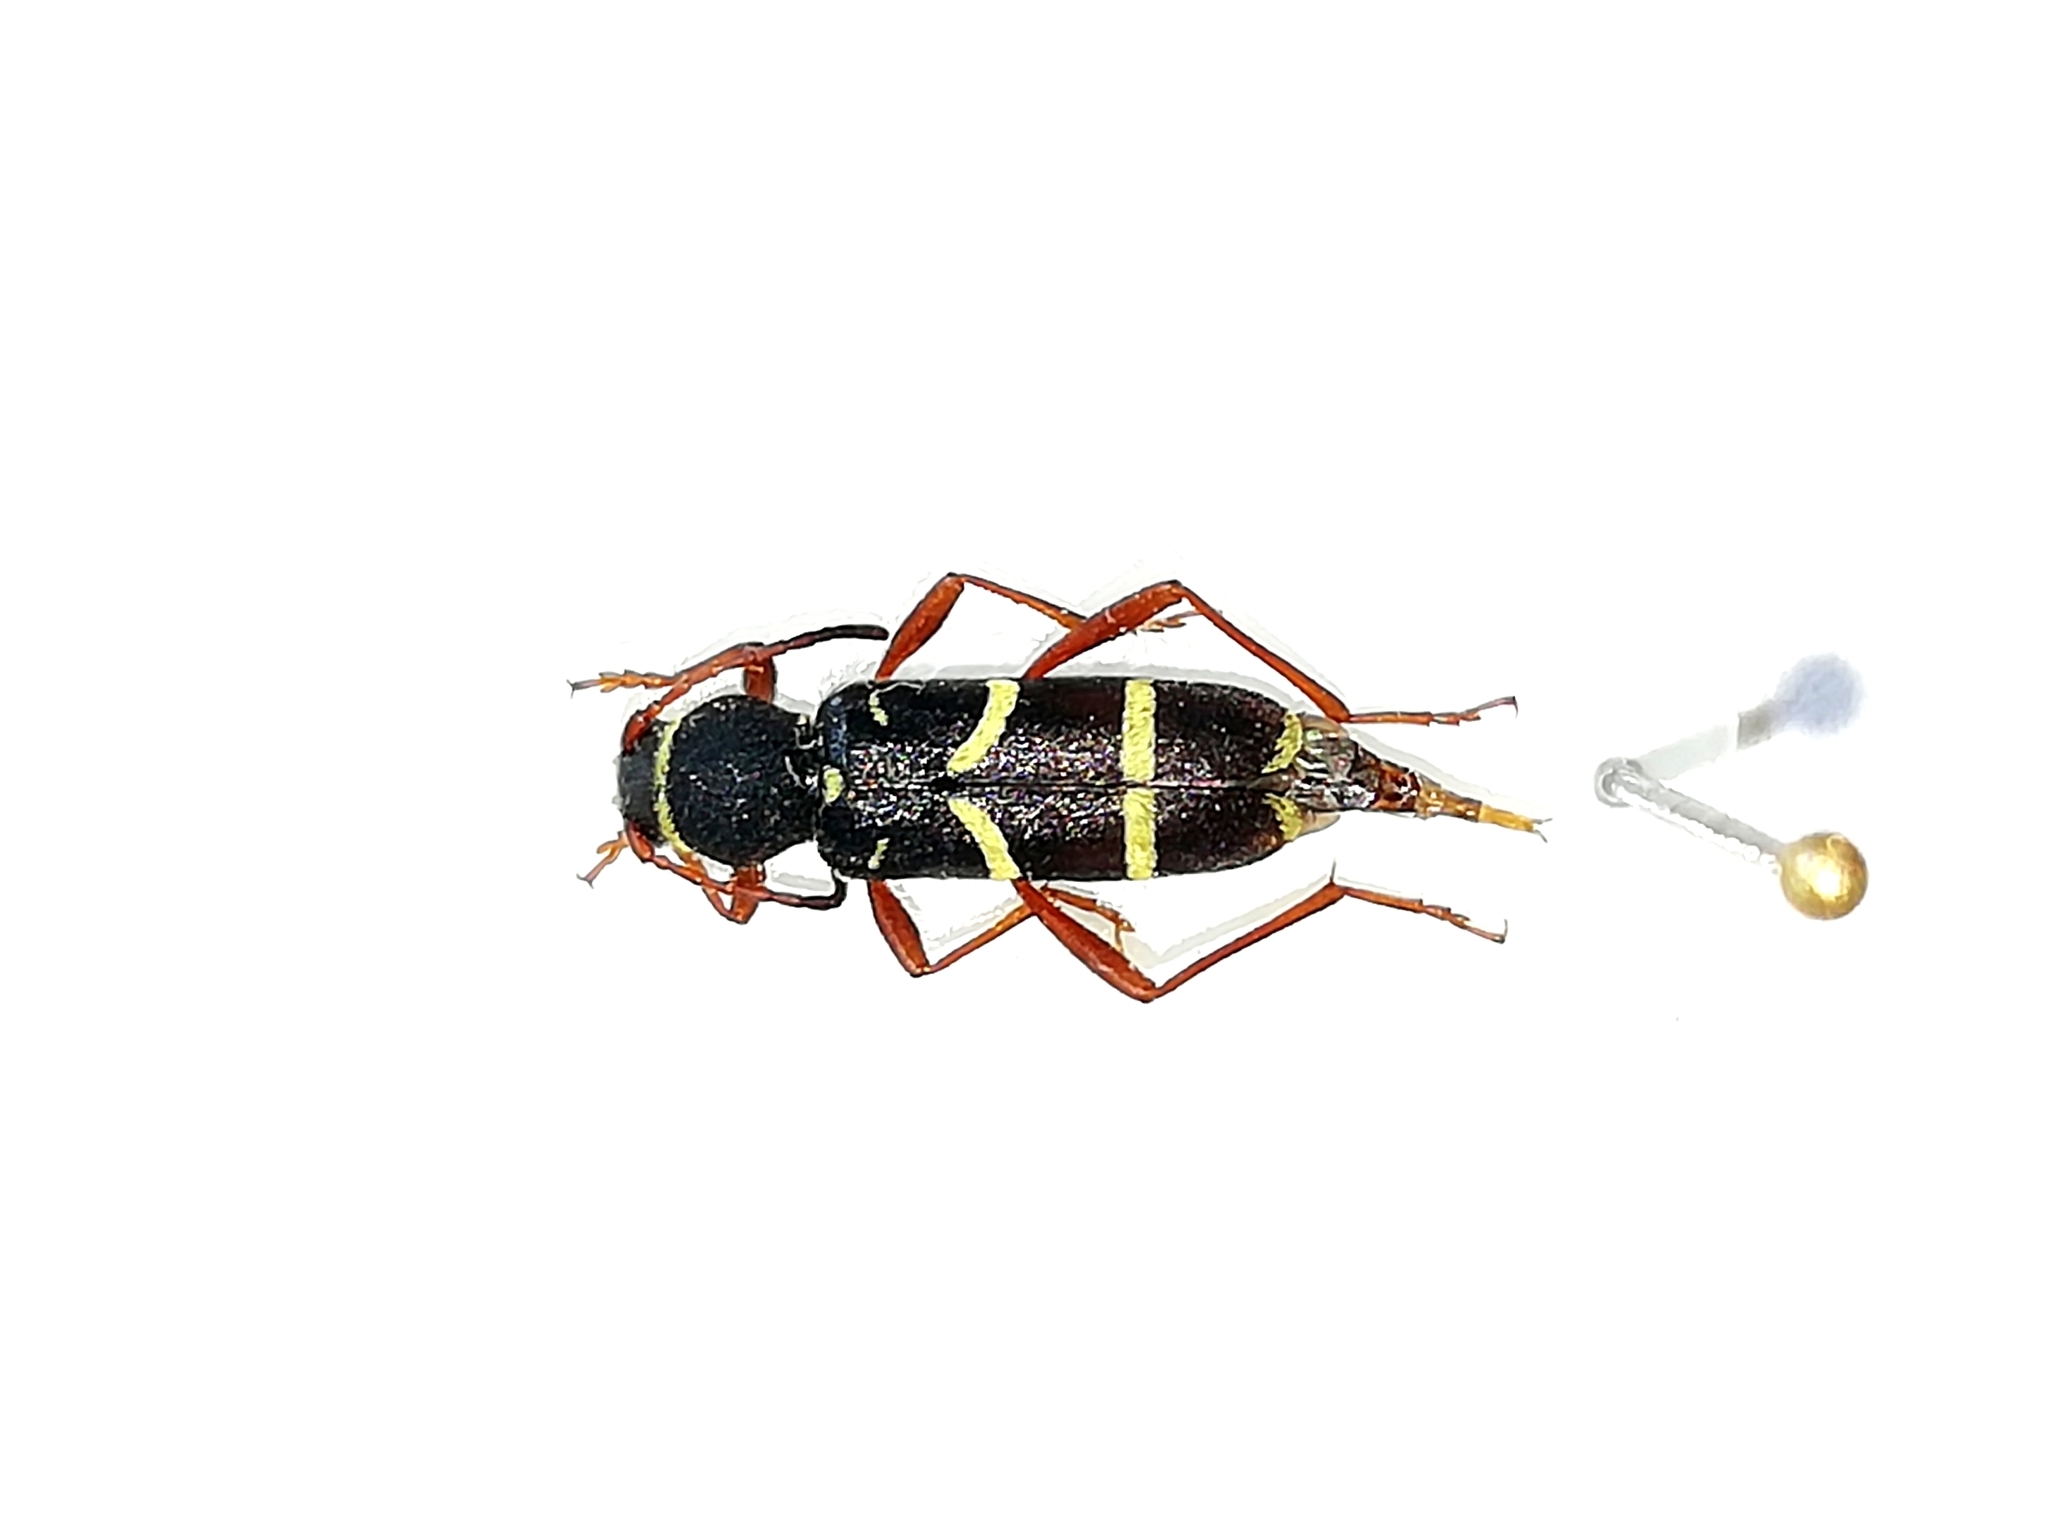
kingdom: Animalia
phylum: Arthropoda
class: Insecta
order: Coleoptera
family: Cerambycidae
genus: Clytus
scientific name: Clytus arietoides
